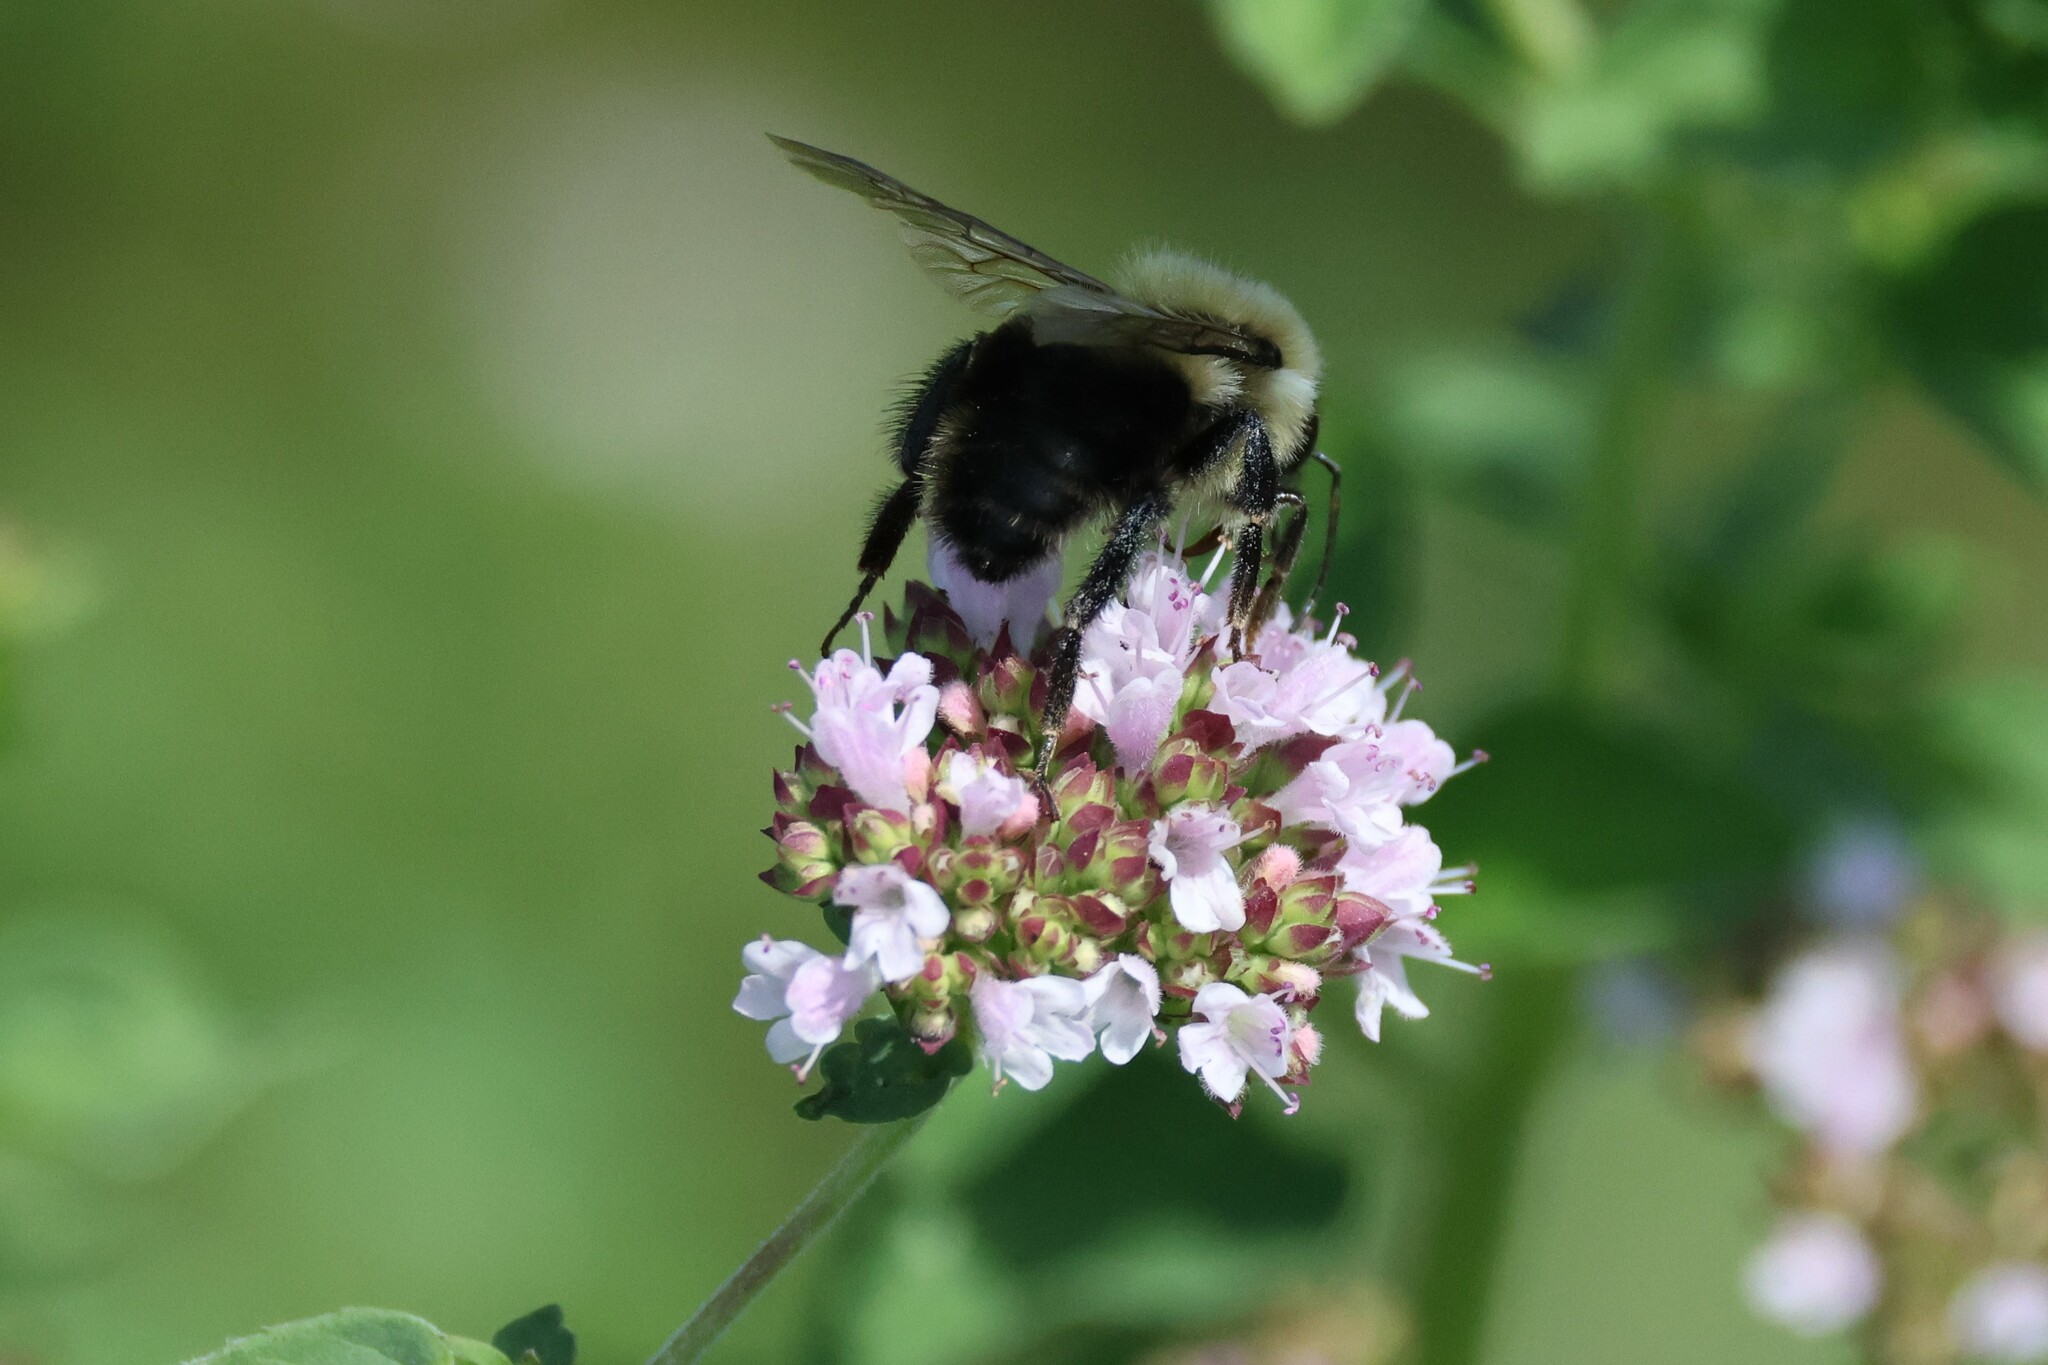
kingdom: Animalia
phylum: Arthropoda
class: Insecta
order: Hymenoptera
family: Apidae
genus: Bombus
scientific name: Bombus bimaculatus
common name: Two-spotted bumble bee
